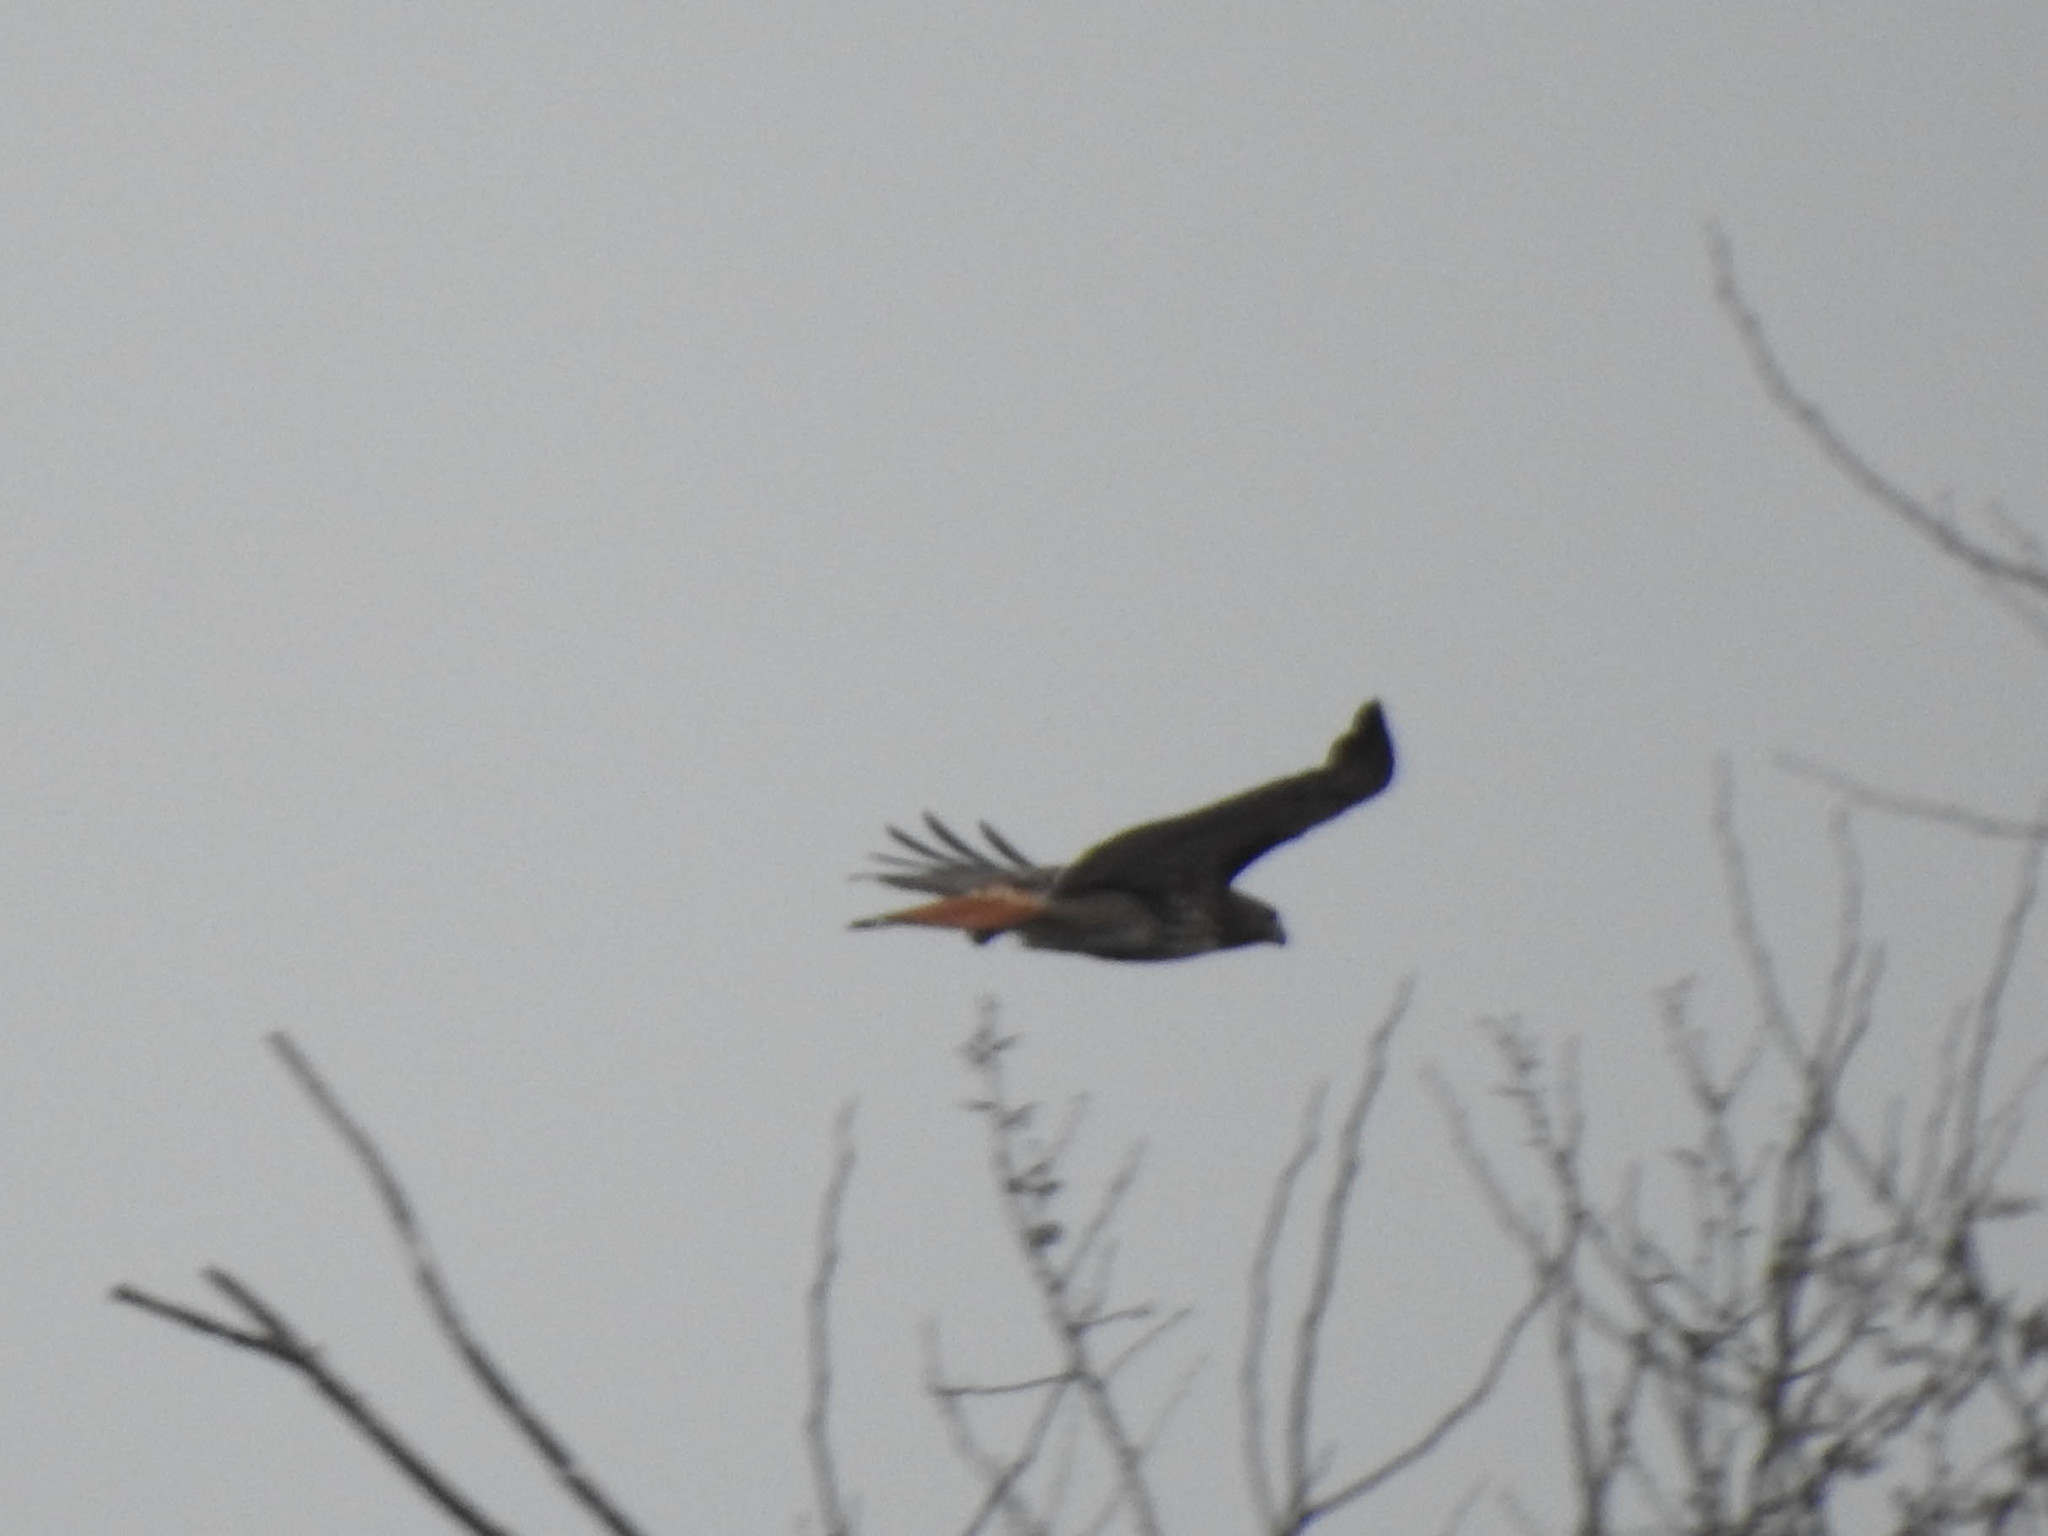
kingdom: Animalia
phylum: Chordata
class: Aves
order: Accipitriformes
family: Accipitridae
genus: Buteo
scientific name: Buteo jamaicensis
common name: Red-tailed hawk
